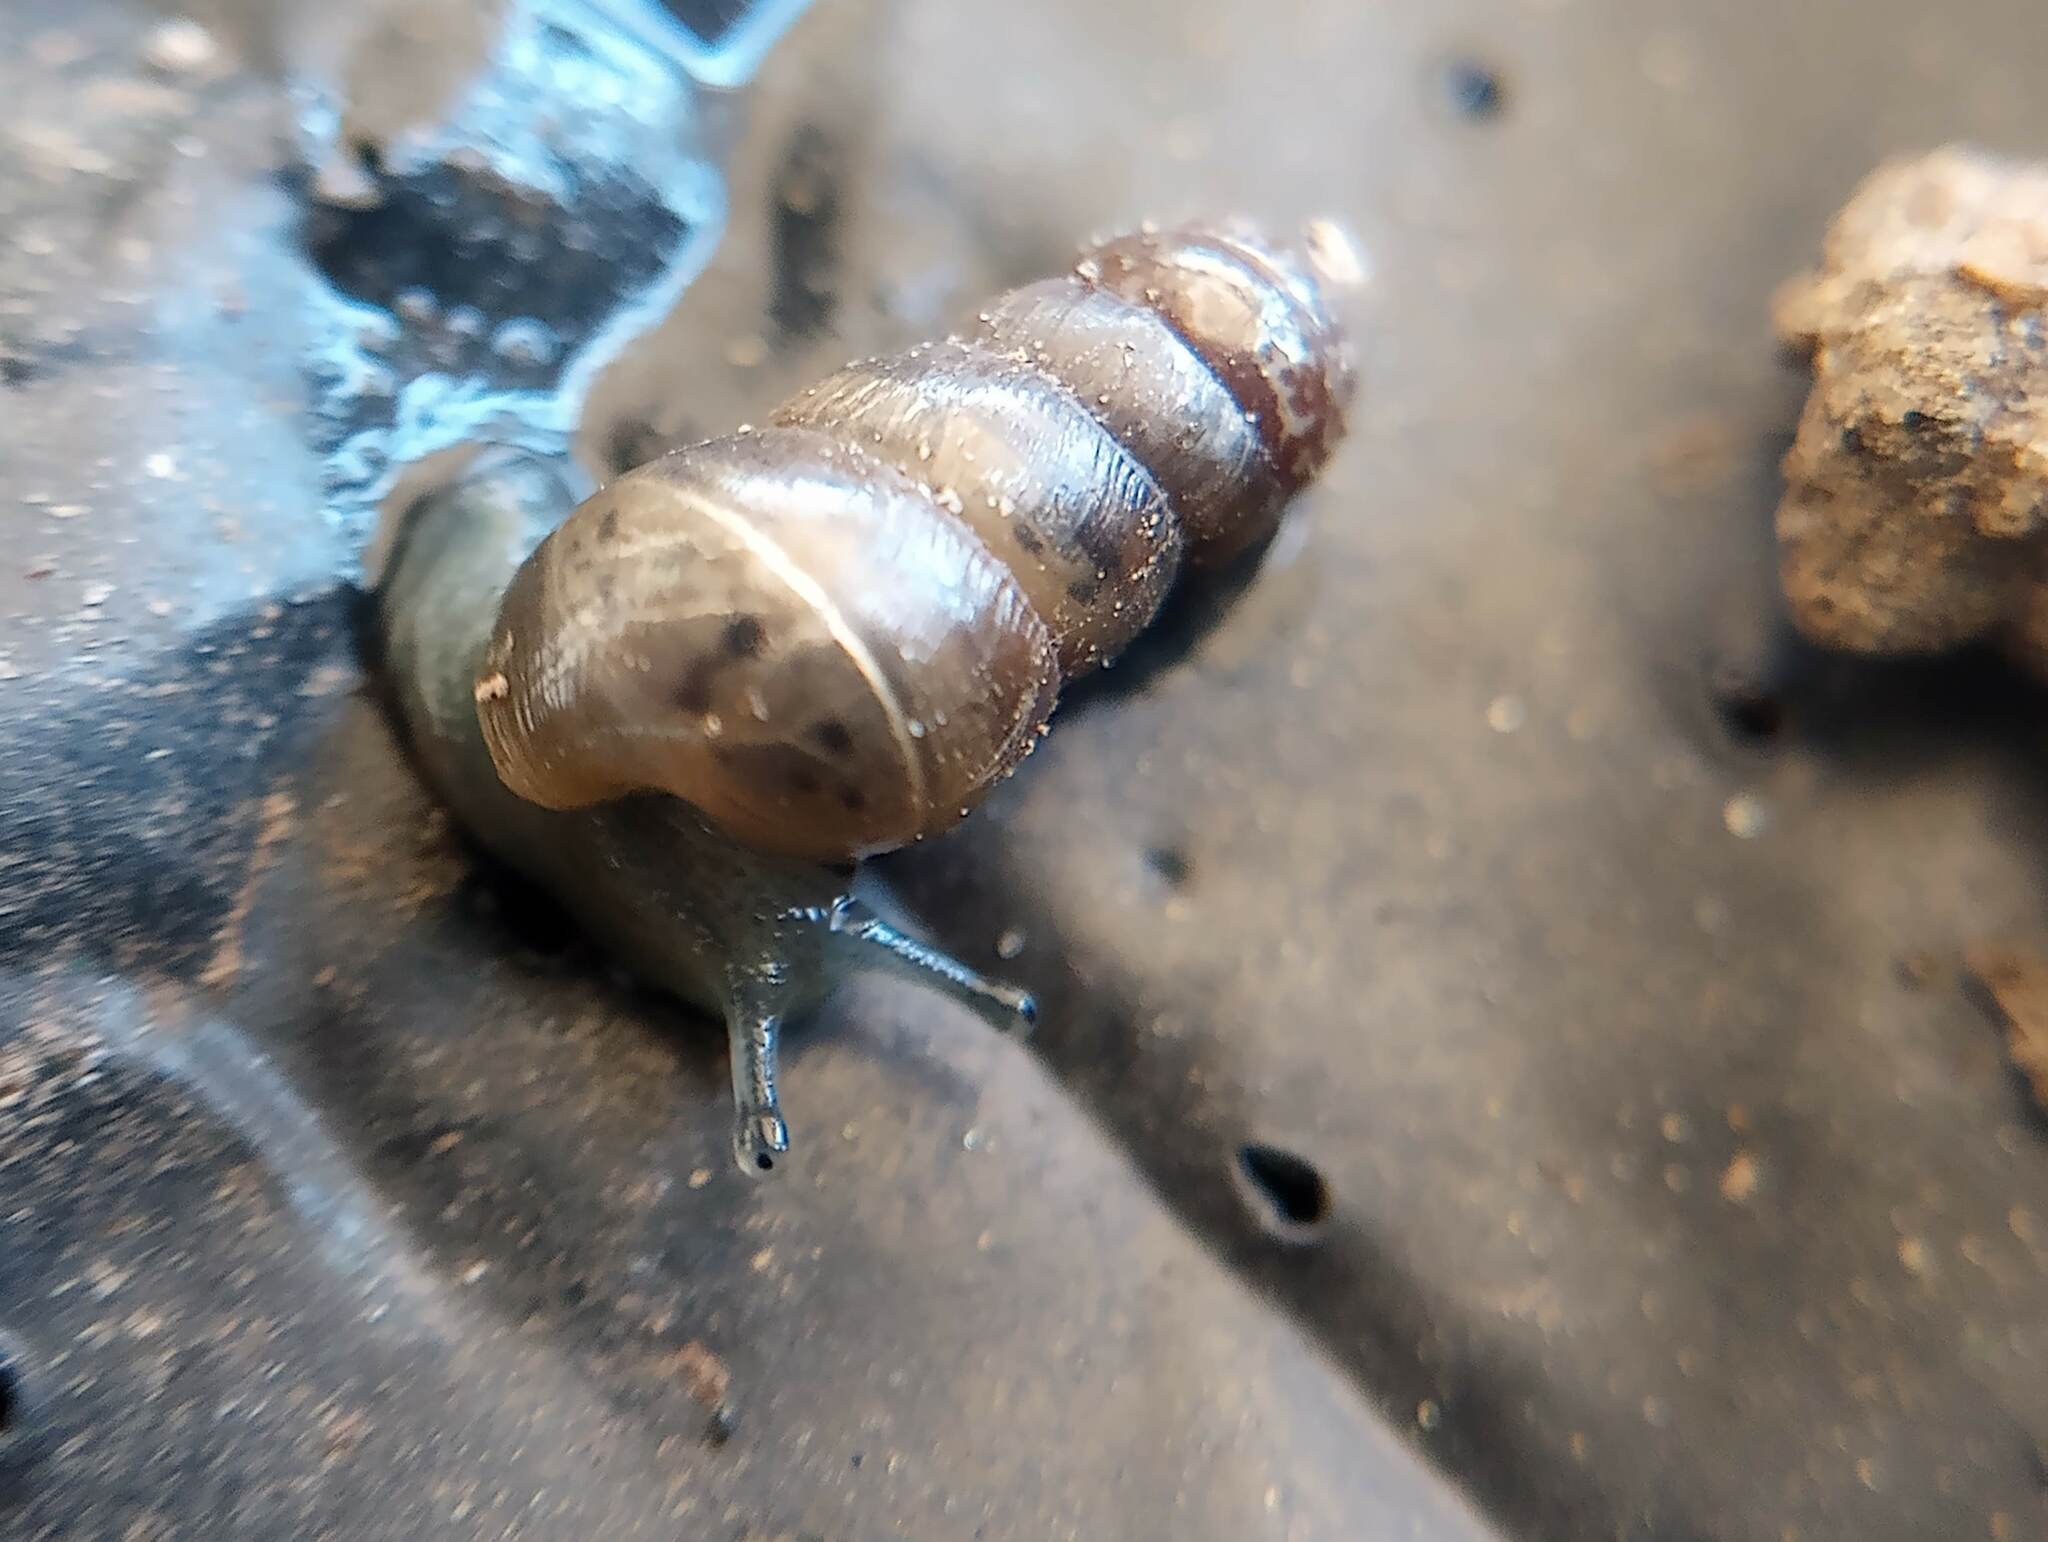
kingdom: Animalia
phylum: Mollusca
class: Gastropoda
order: Stylommatophora
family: Achatinidae
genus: Rumina
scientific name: Rumina decollata
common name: Decollate snail
